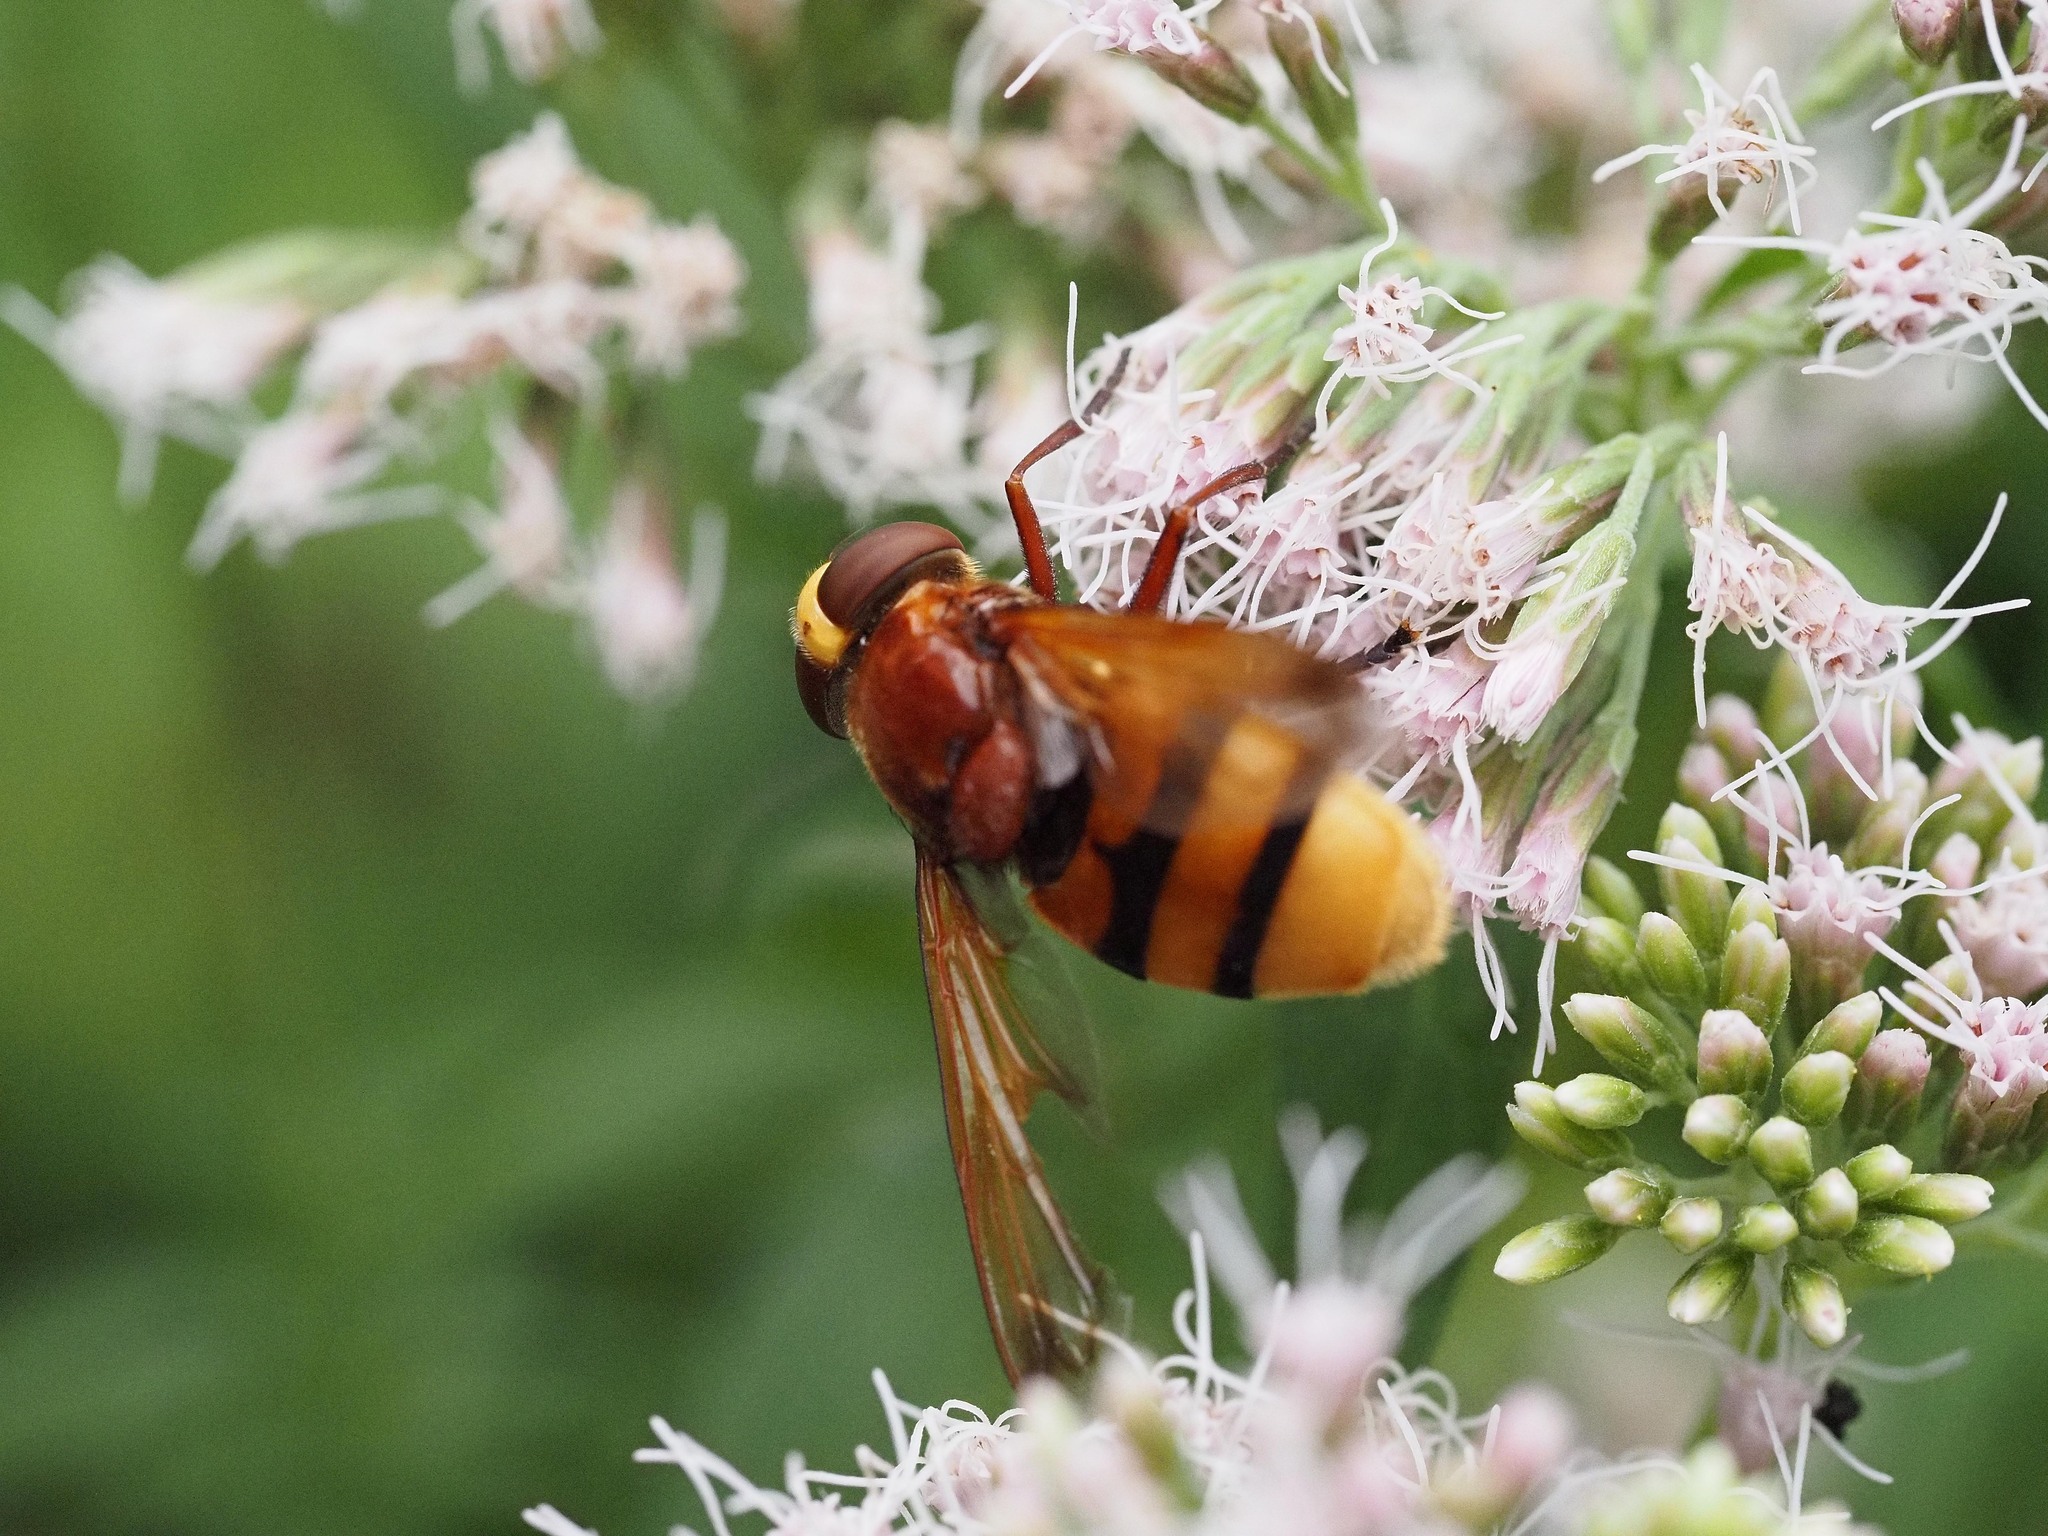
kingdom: Animalia
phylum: Arthropoda
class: Insecta
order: Diptera
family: Syrphidae
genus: Volucella
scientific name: Volucella zonaria
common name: Hornet hoverfly
